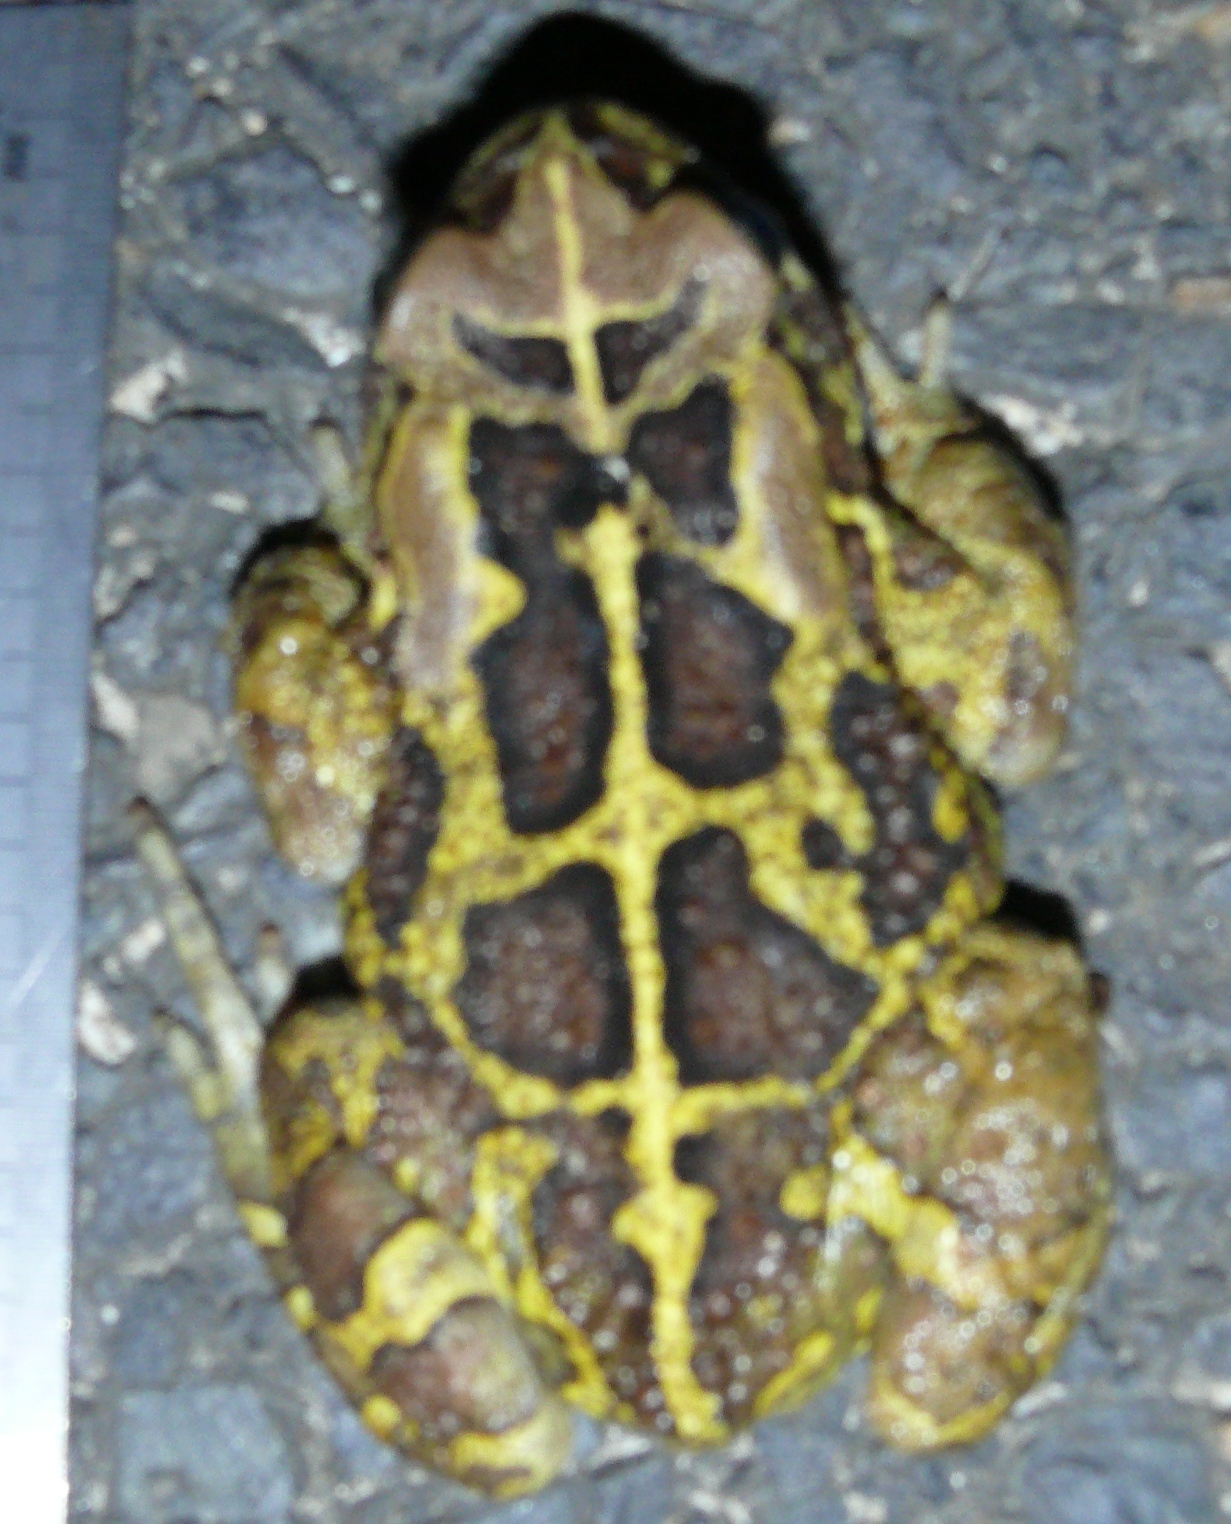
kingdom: Animalia
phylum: Chordata
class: Amphibia
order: Anura
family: Bufonidae
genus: Sclerophrys
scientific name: Sclerophrys pantherina
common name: Panther toad
